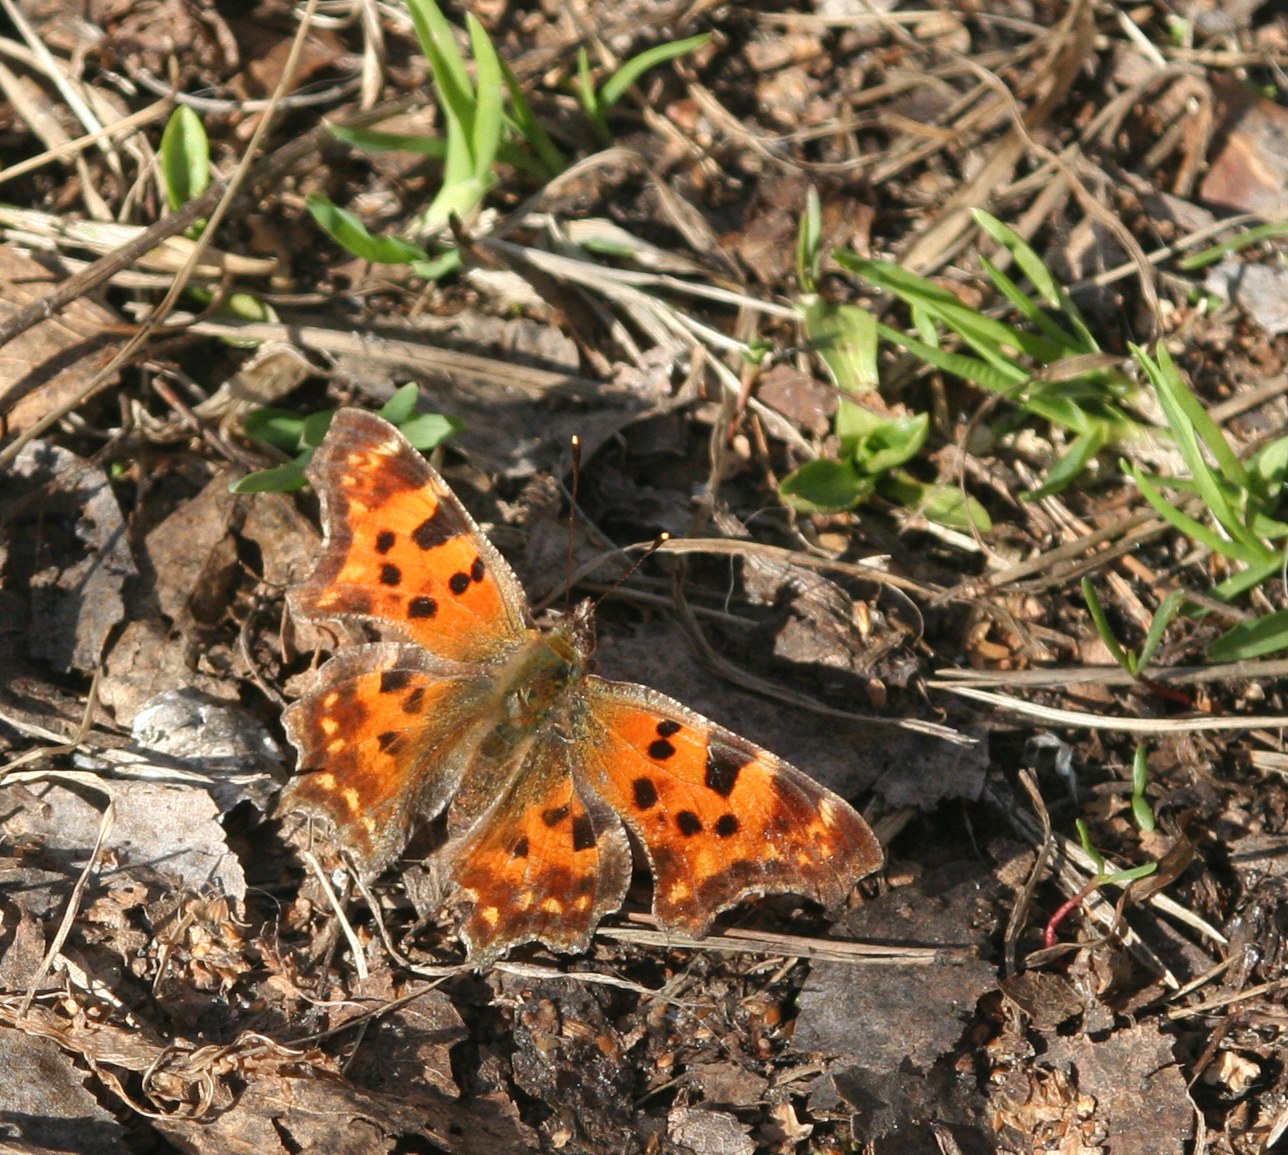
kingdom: Animalia
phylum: Arthropoda
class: Insecta
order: Lepidoptera
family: Nymphalidae
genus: Polygonia
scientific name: Polygonia c-album
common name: Comma
